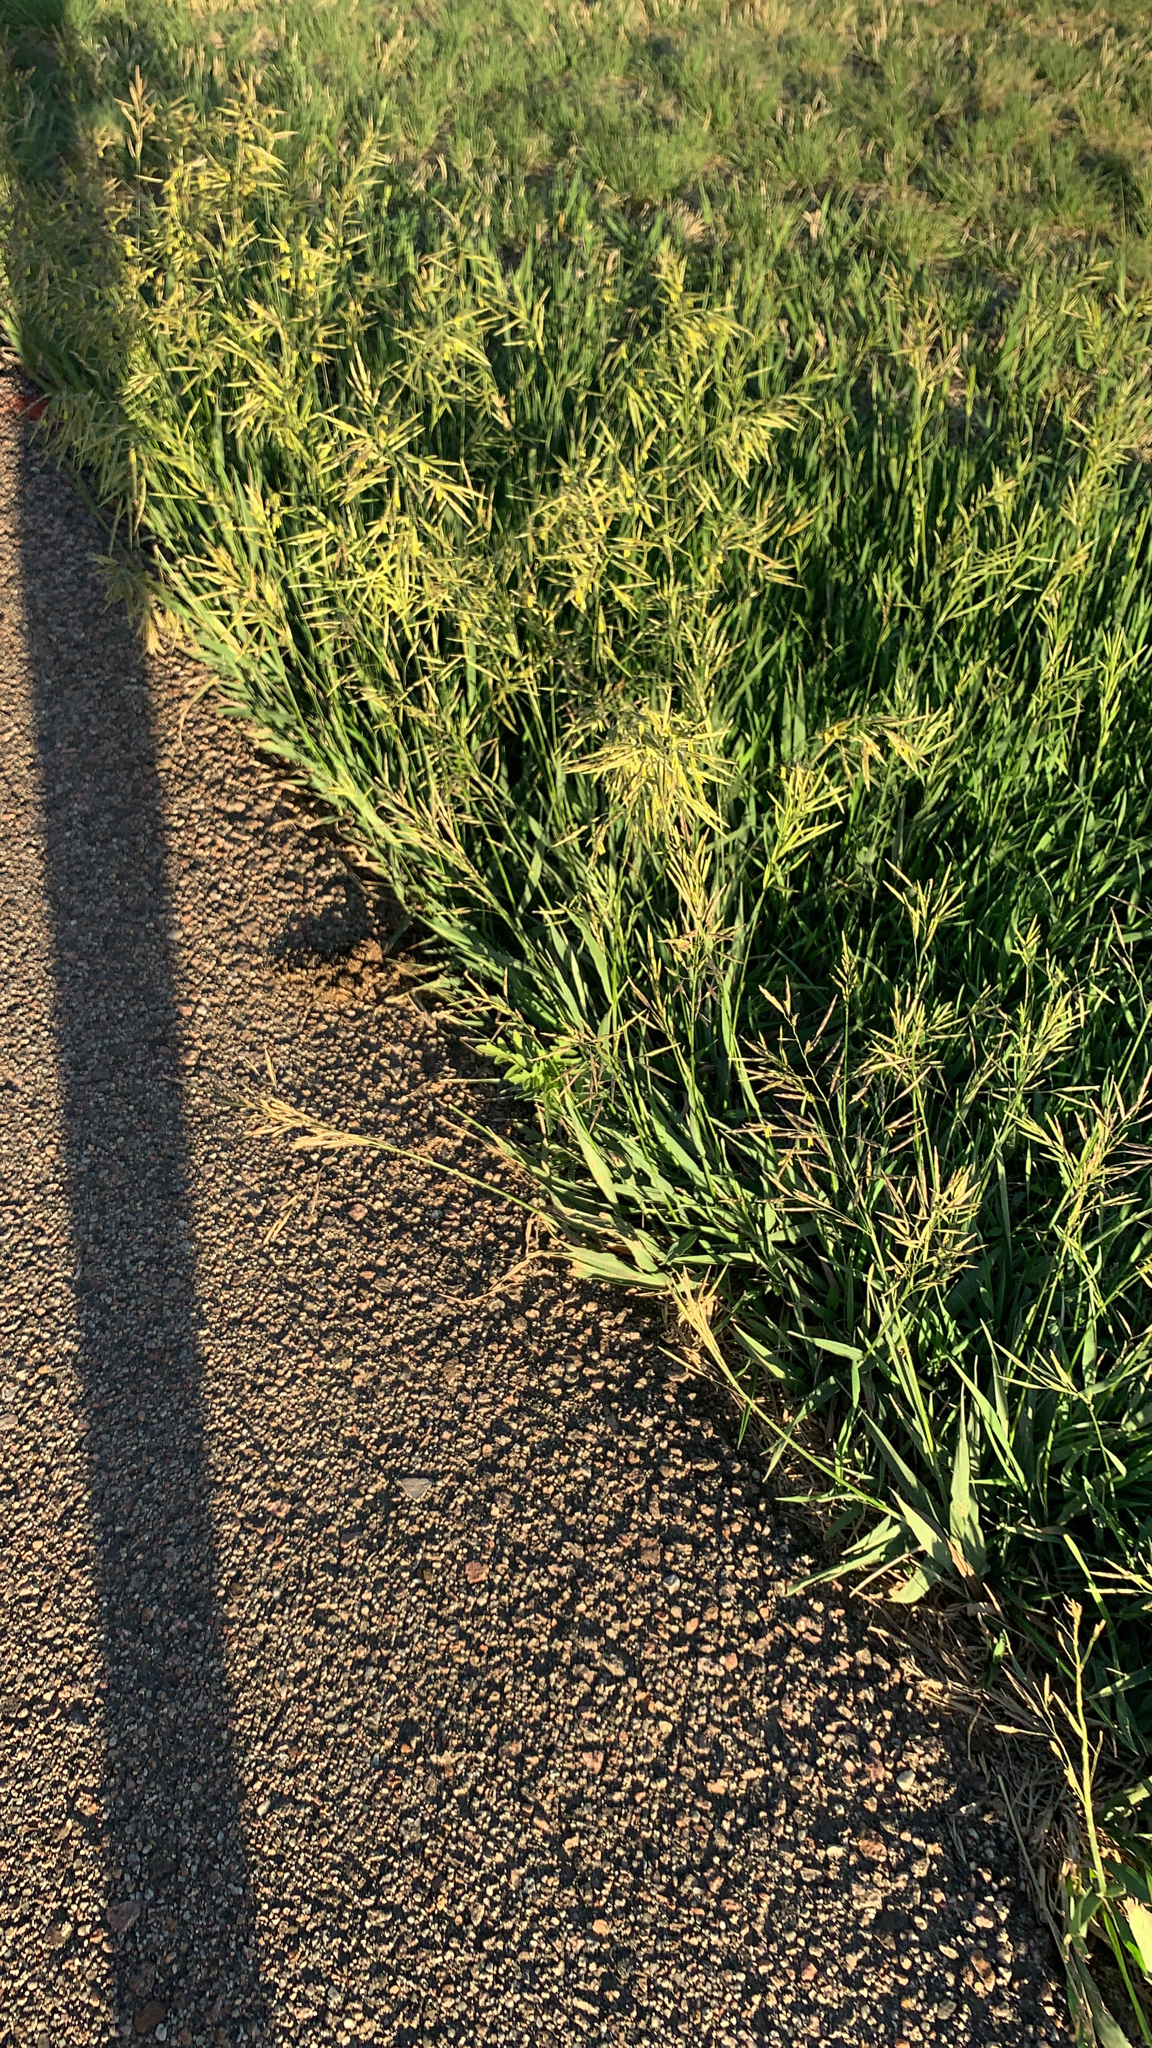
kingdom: Plantae
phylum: Tracheophyta
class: Liliopsida
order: Poales
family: Poaceae
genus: Bromus
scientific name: Bromus inermis
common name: Smooth brome
